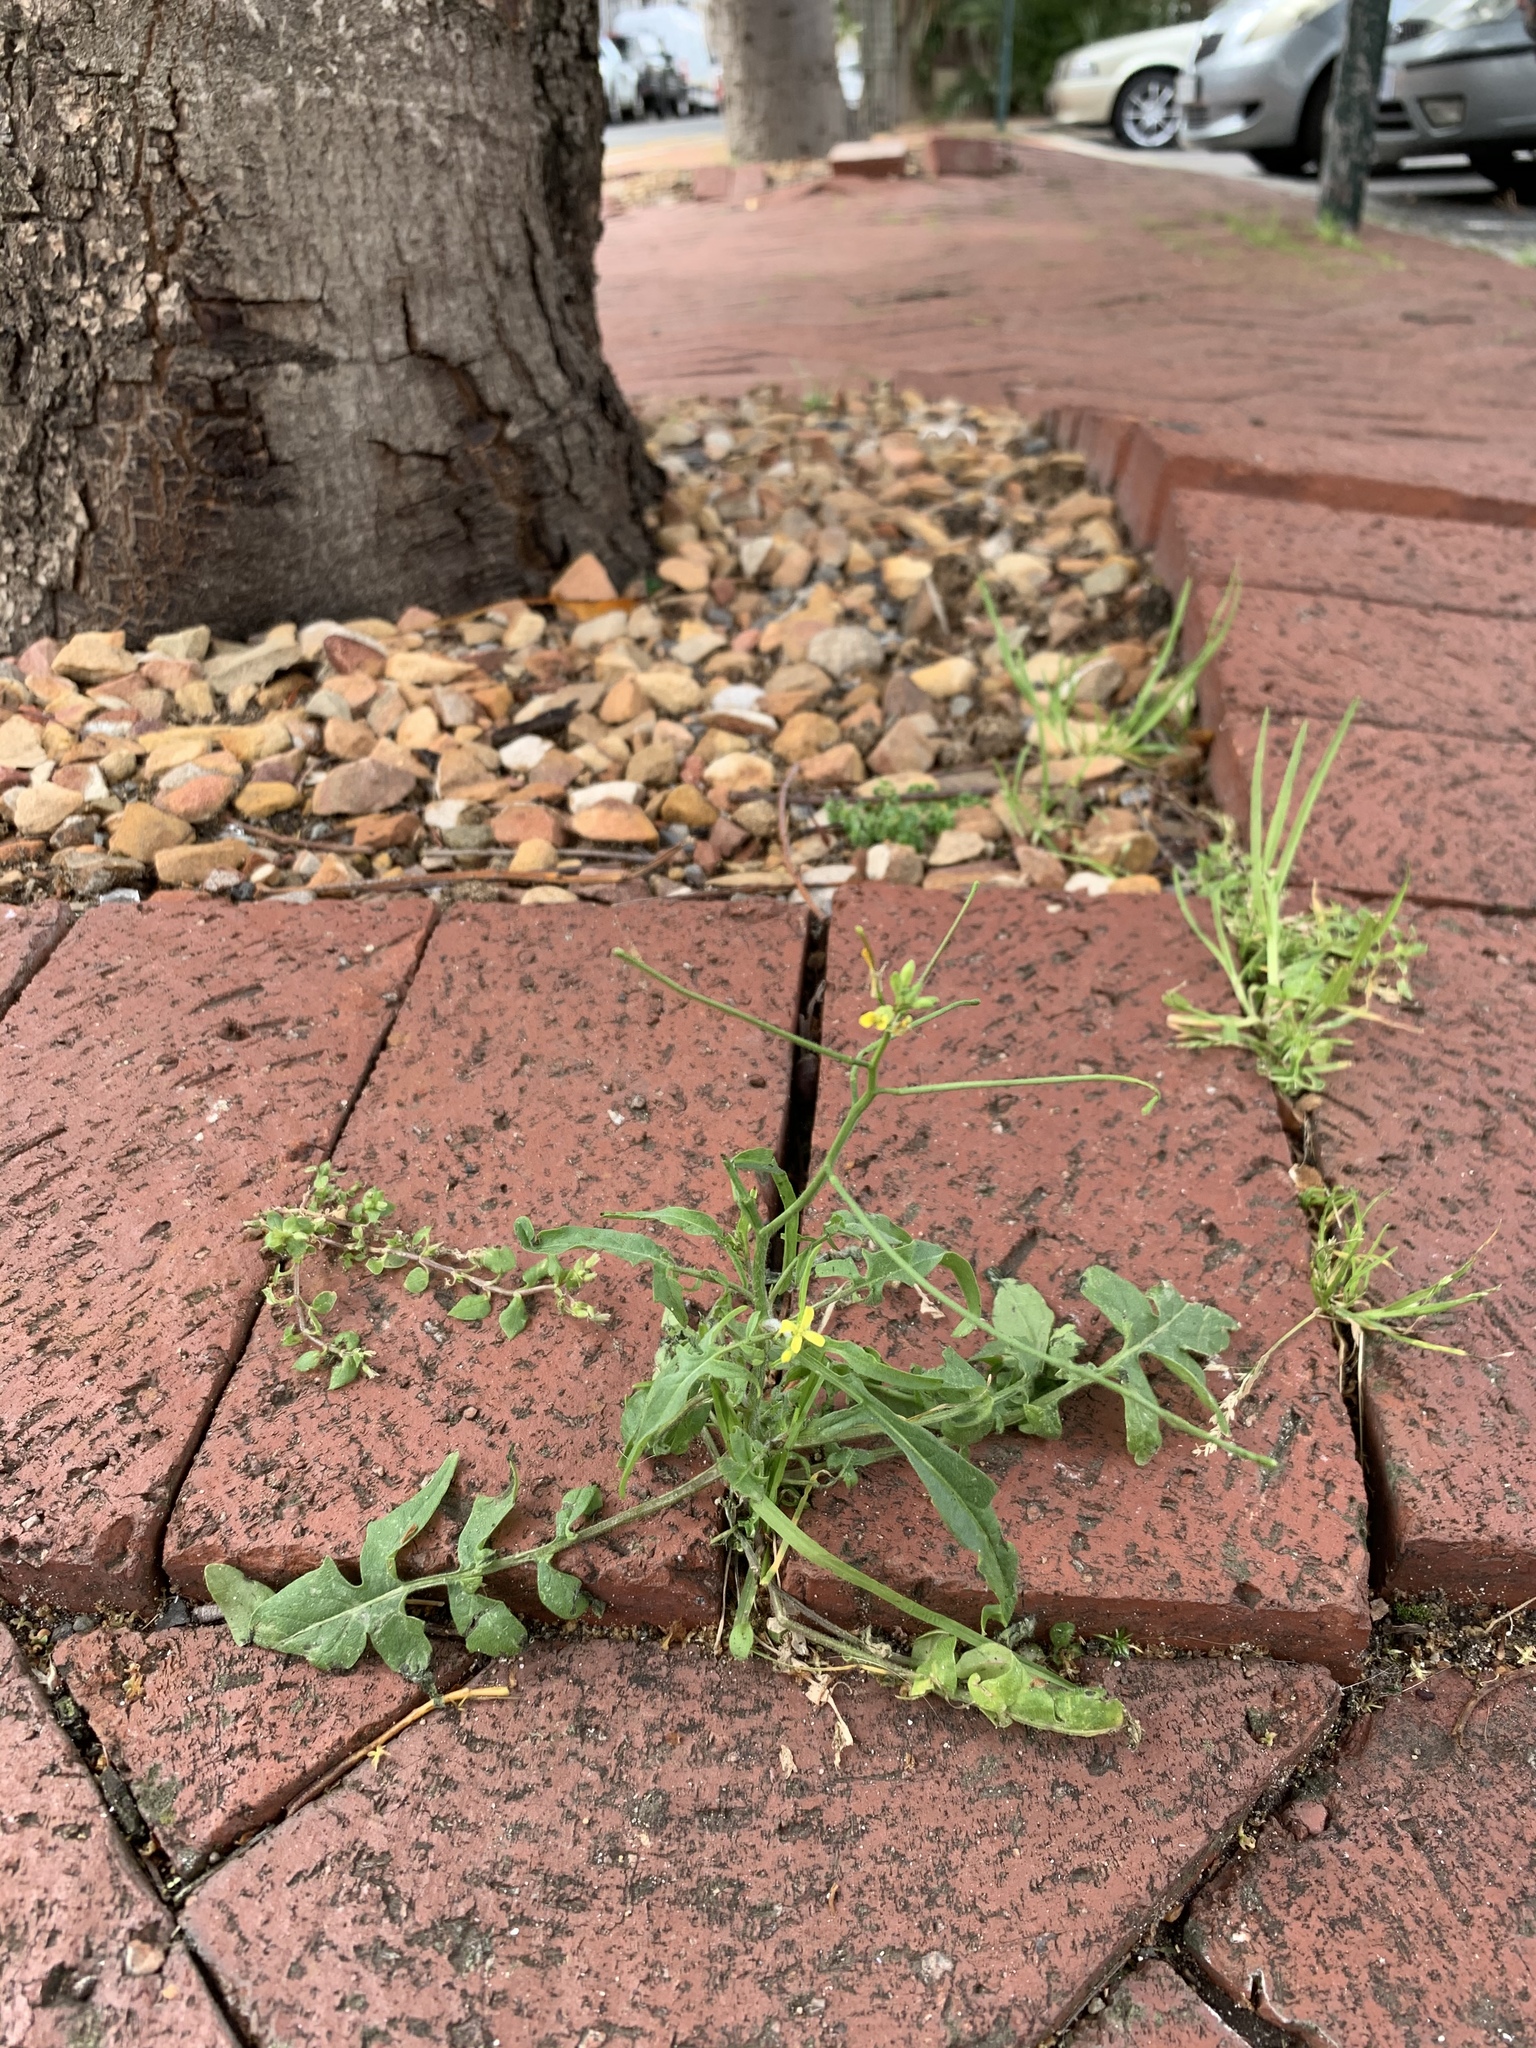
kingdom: Plantae
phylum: Tracheophyta
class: Magnoliopsida
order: Brassicales
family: Brassicaceae
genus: Sisymbrium
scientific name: Sisymbrium orientale
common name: Eastern rocket
